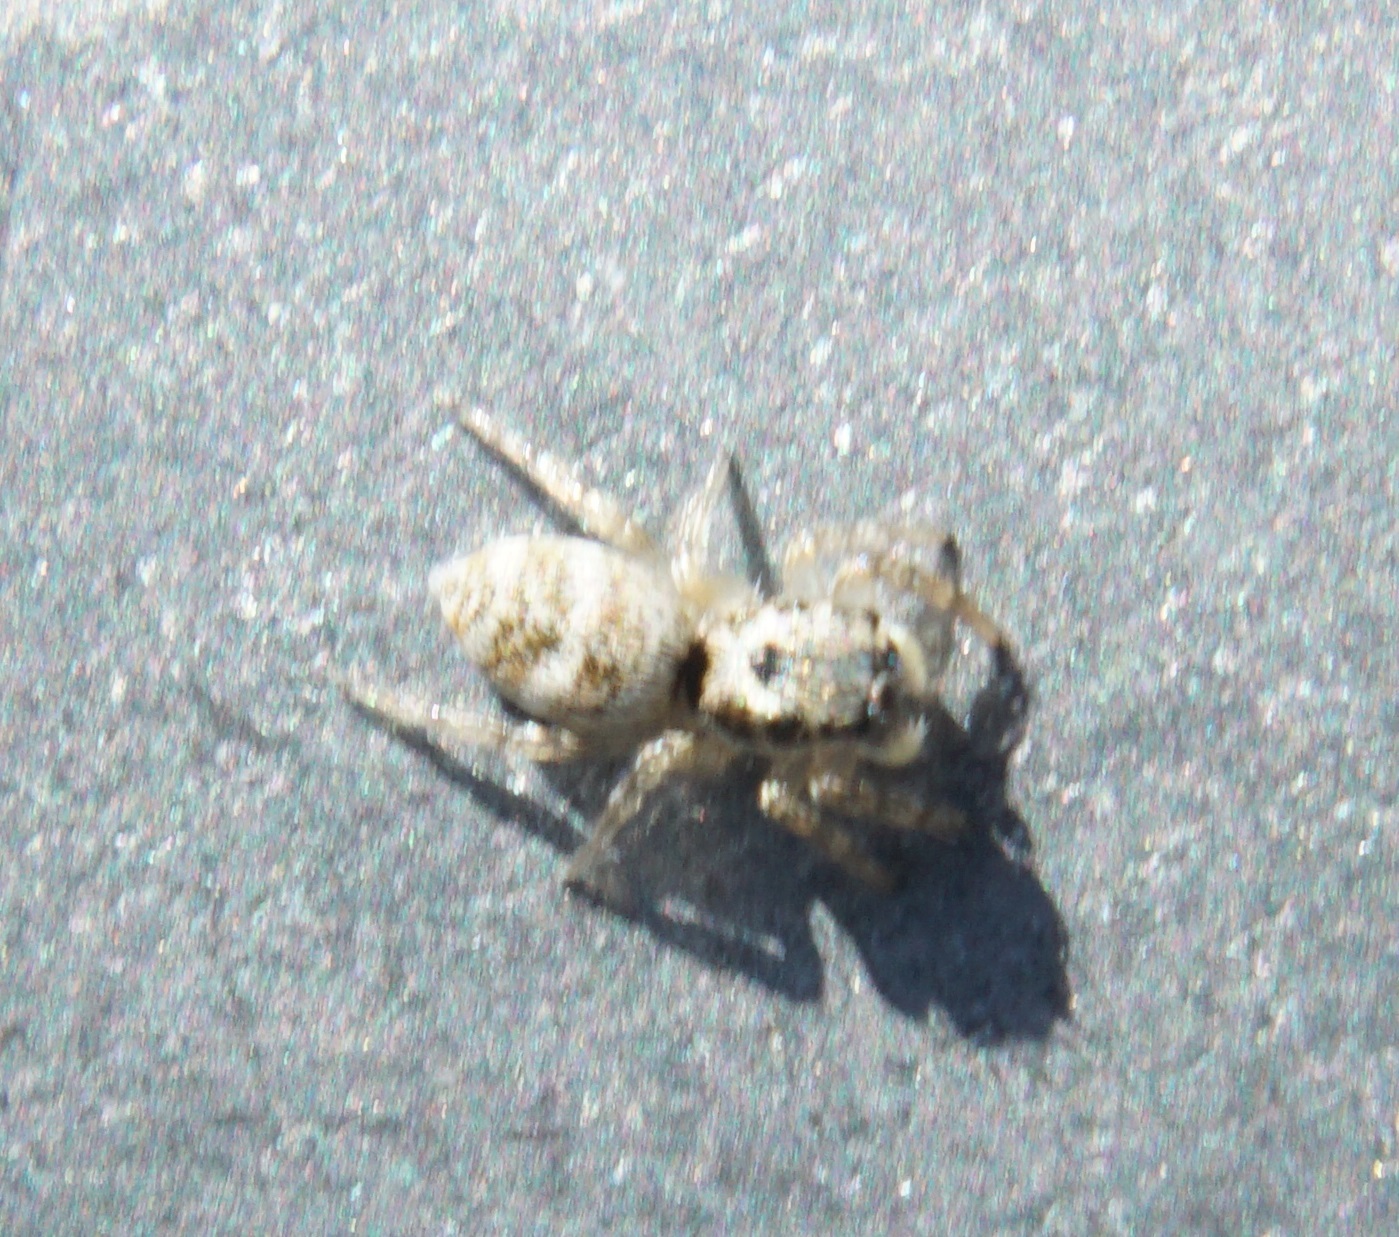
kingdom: Animalia
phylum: Arthropoda
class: Arachnida
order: Araneae
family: Salticidae
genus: Salticus
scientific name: Salticus scenicus
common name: Zebra jumper
